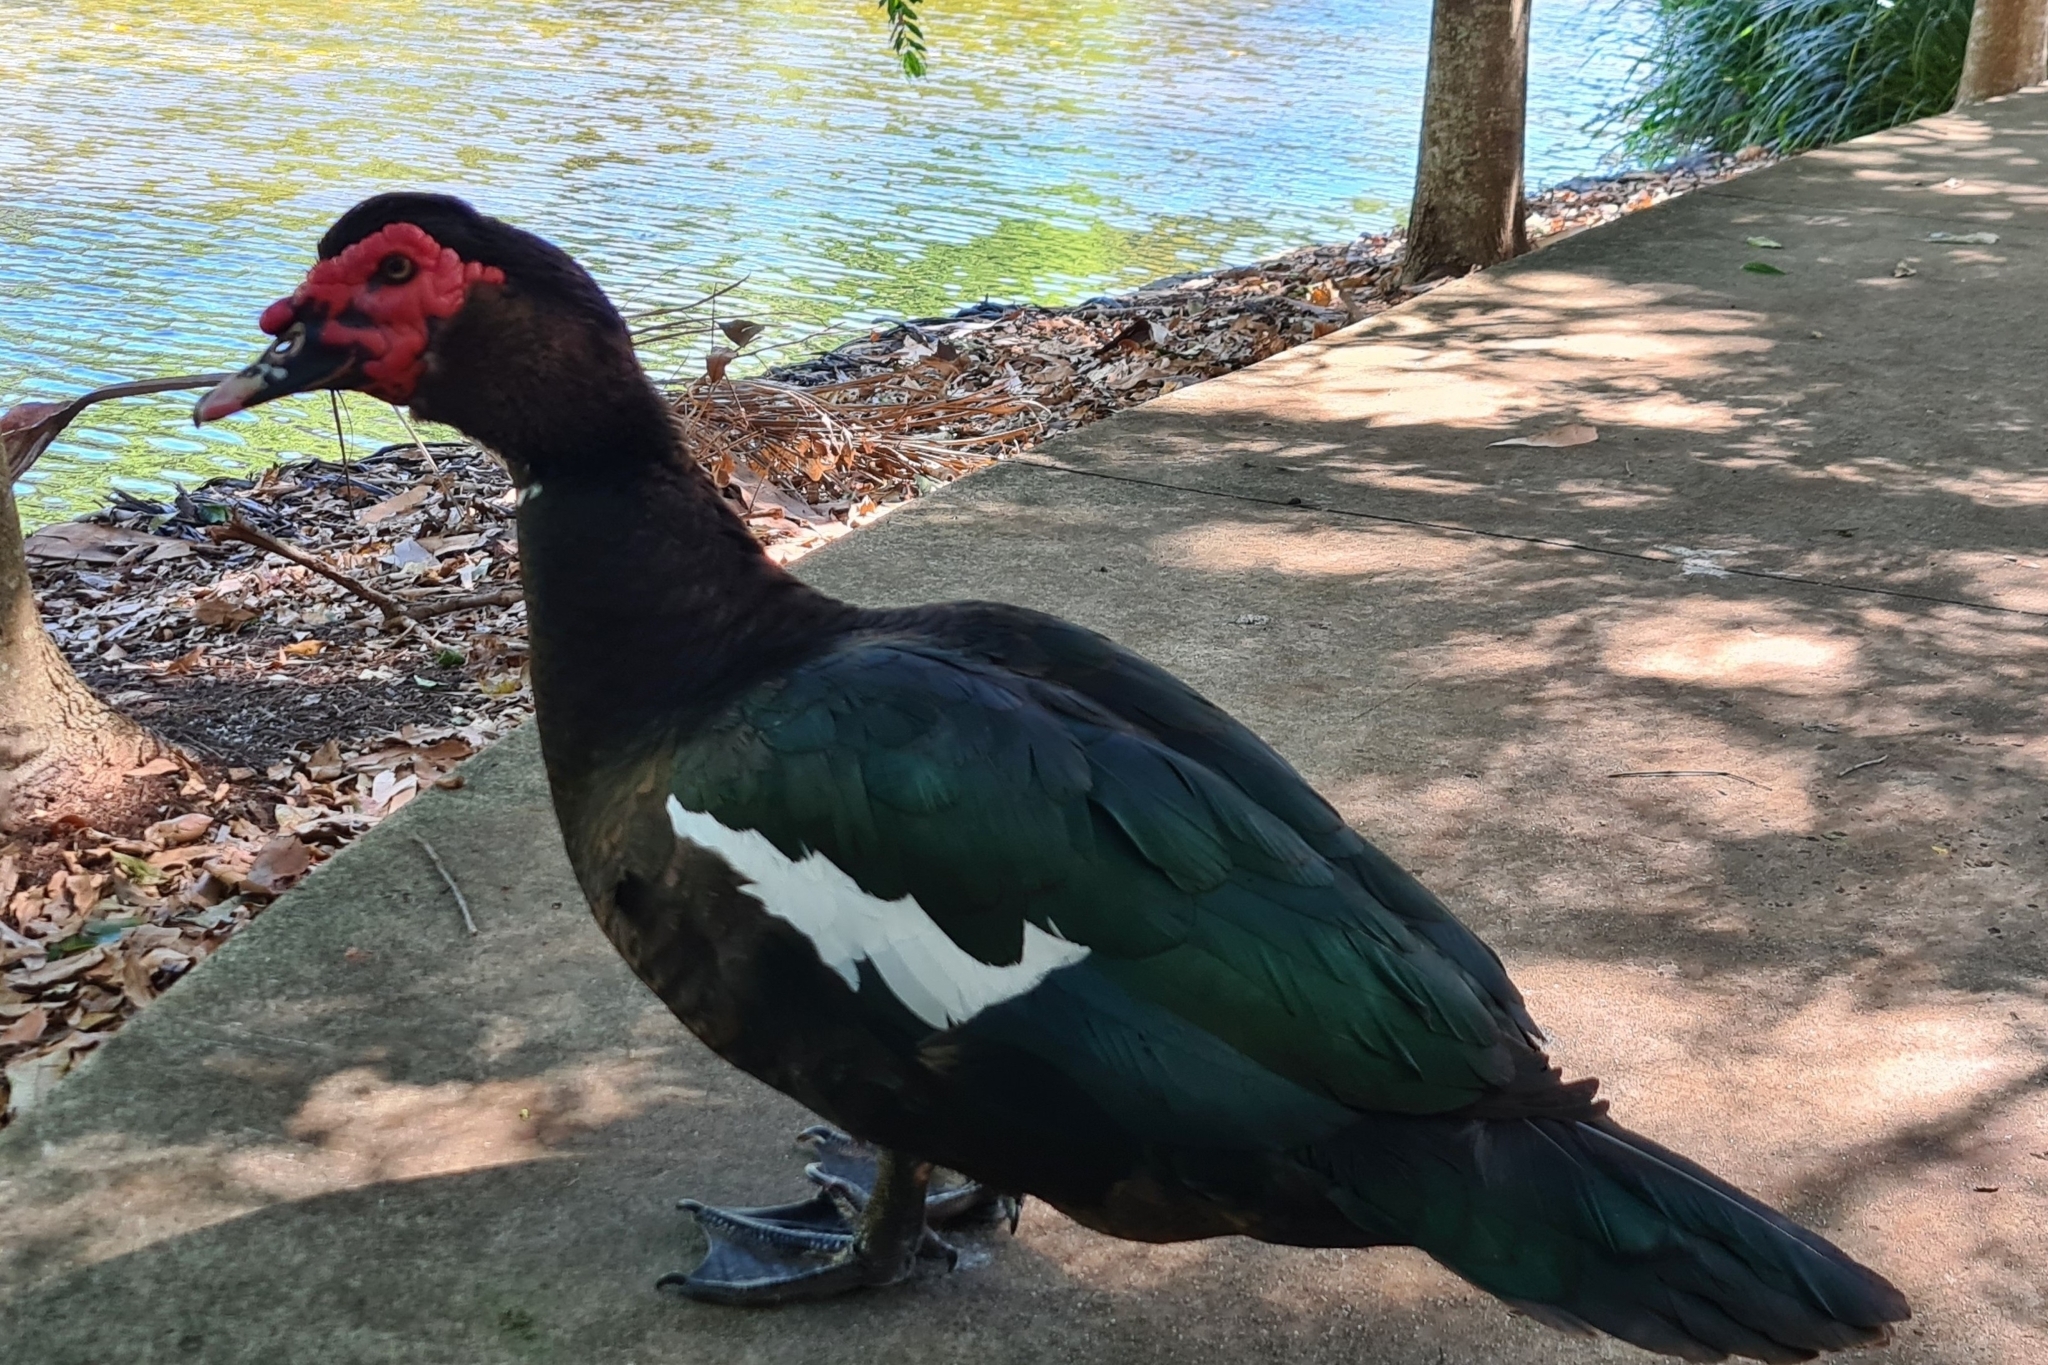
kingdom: Animalia
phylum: Chordata
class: Aves
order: Anseriformes
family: Anatidae
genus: Cairina
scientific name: Cairina moschata
